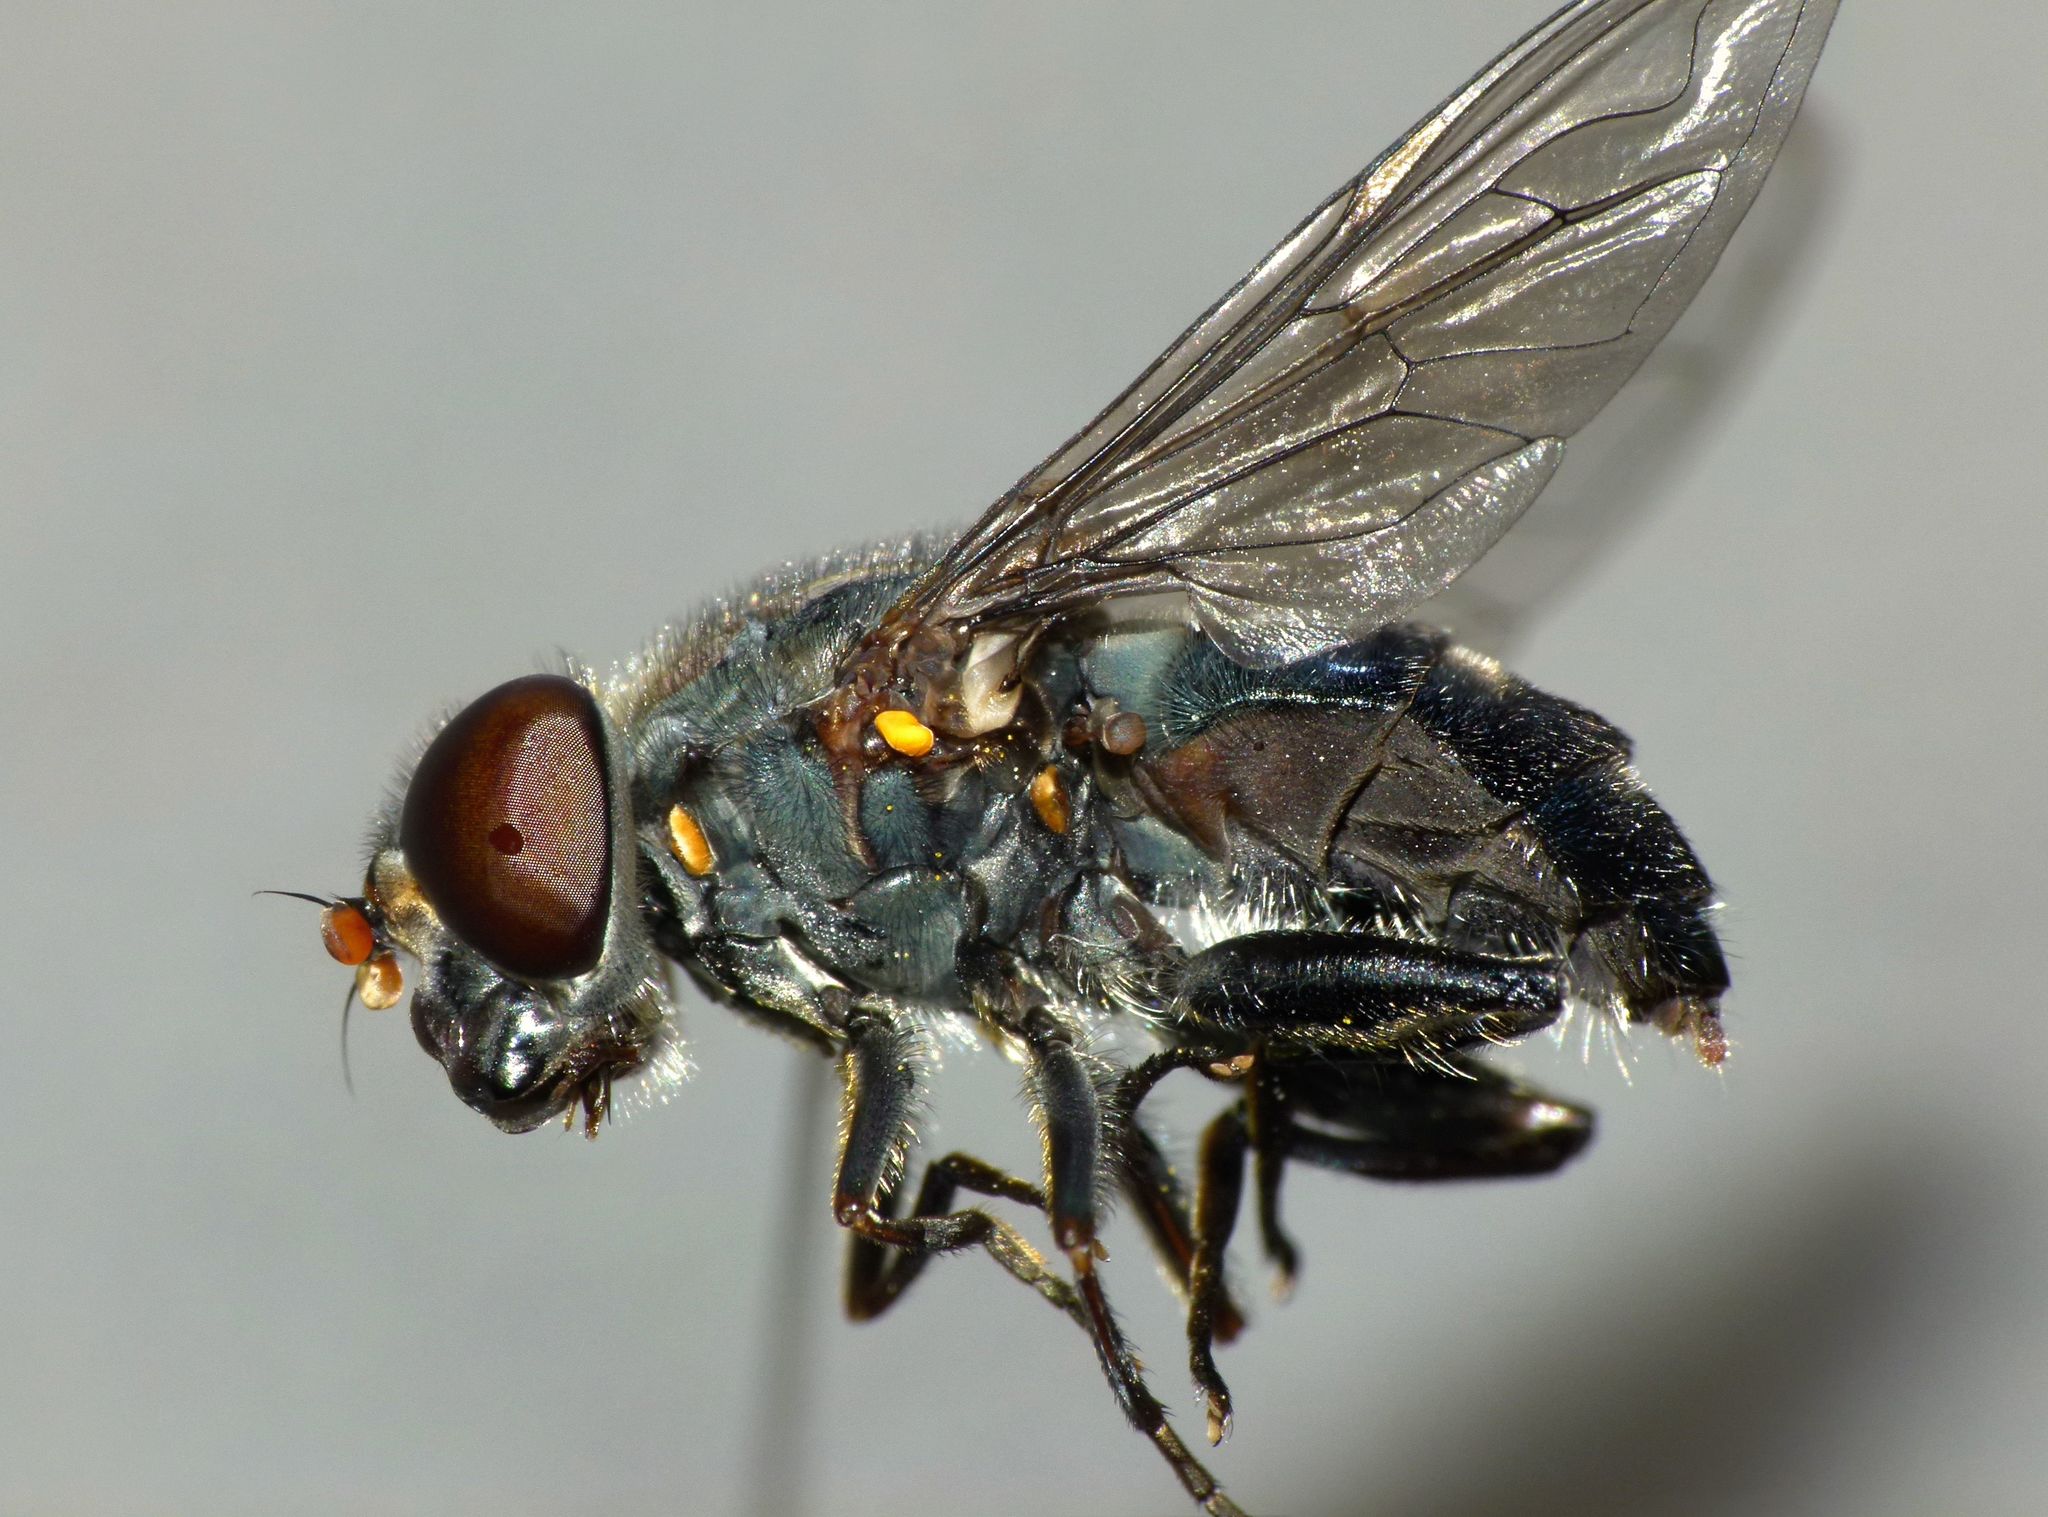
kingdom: Animalia
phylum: Arthropoda
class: Insecta
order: Diptera
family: Syrphidae
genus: Helophilus
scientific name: Helophilus hochstetteri
